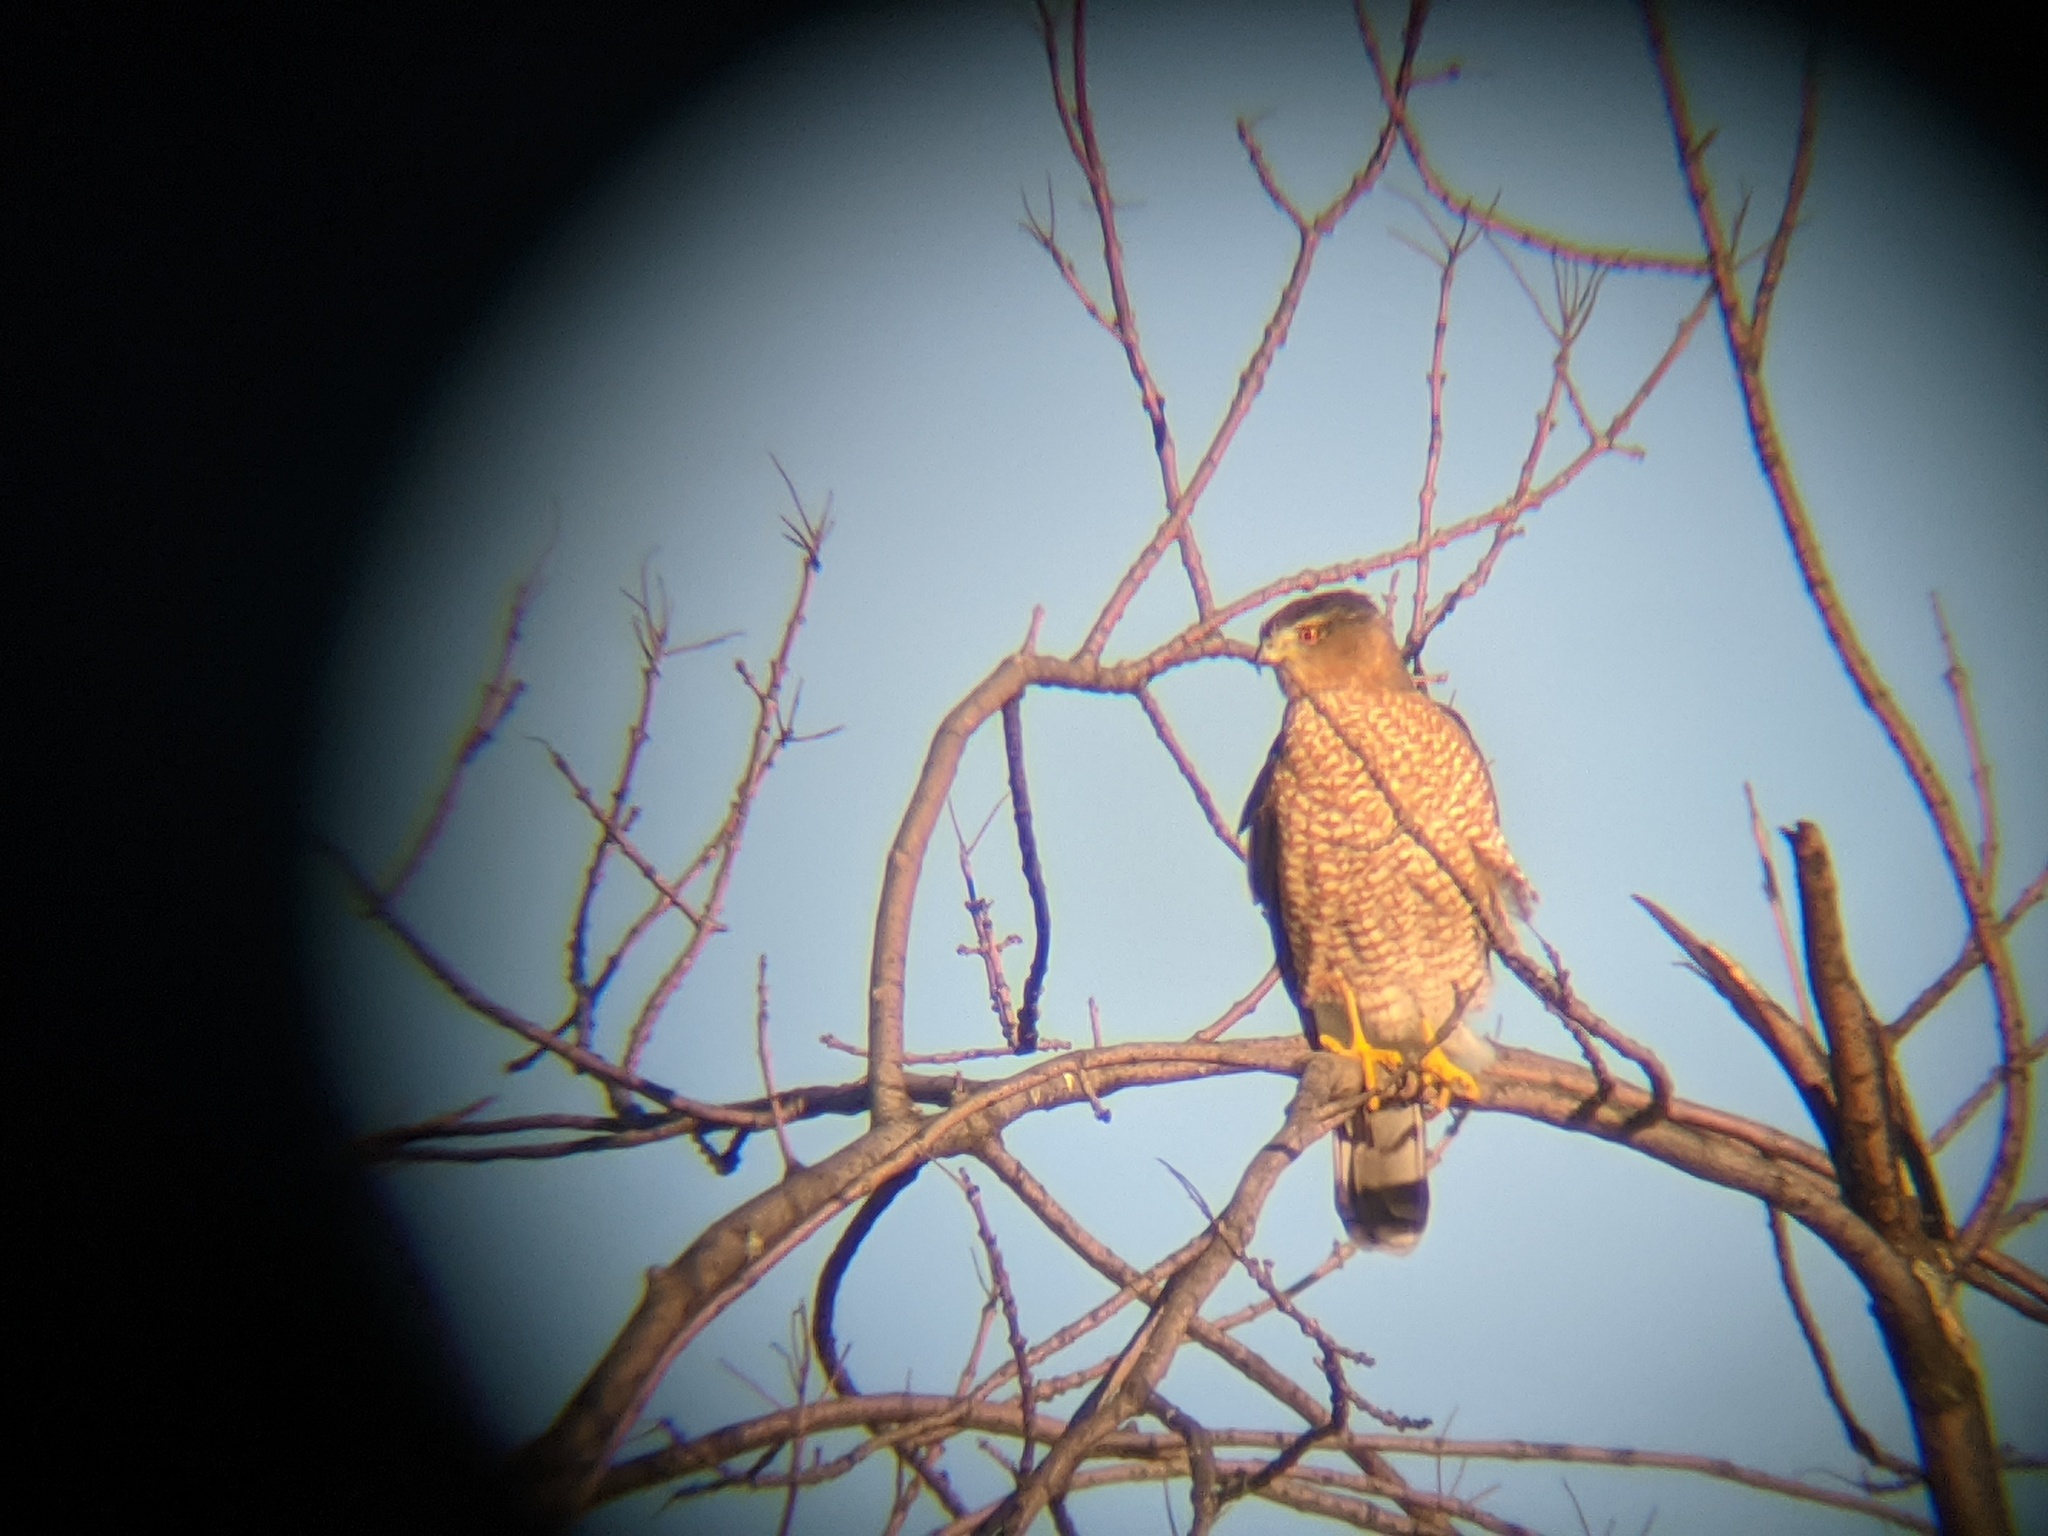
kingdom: Animalia
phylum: Chordata
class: Aves
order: Accipitriformes
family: Accipitridae
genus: Accipiter
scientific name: Accipiter cooperii
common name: Cooper's hawk
